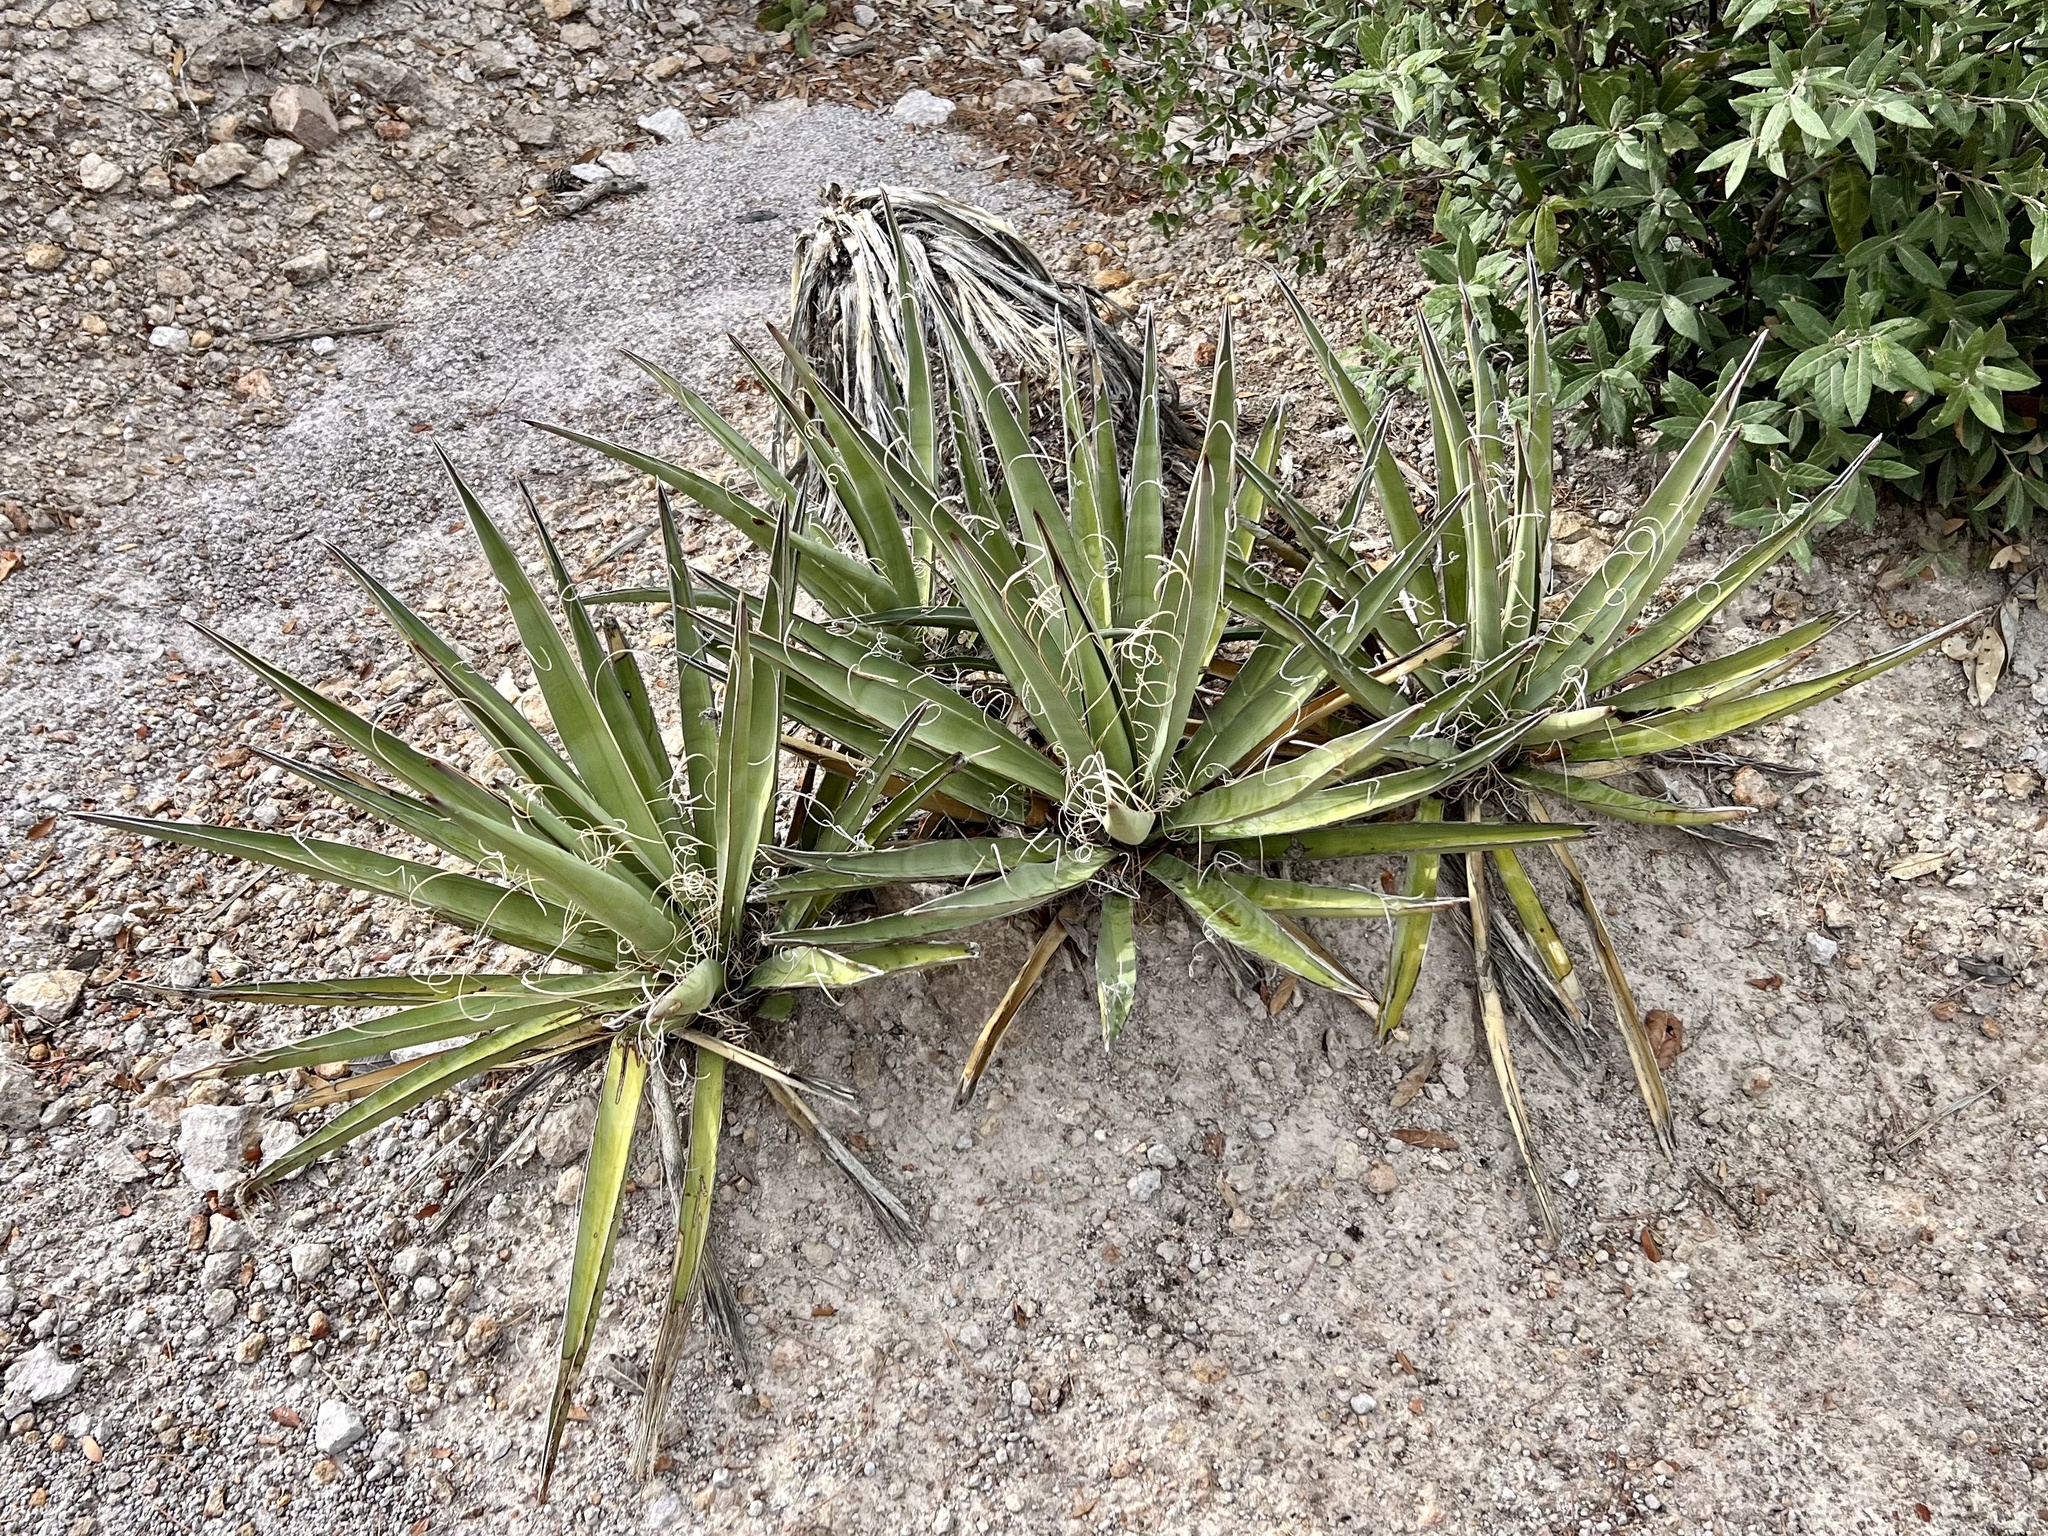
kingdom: Plantae
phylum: Tracheophyta
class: Liliopsida
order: Asparagales
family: Asparagaceae
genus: Yucca
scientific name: Yucca baccata
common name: Banana yucca
